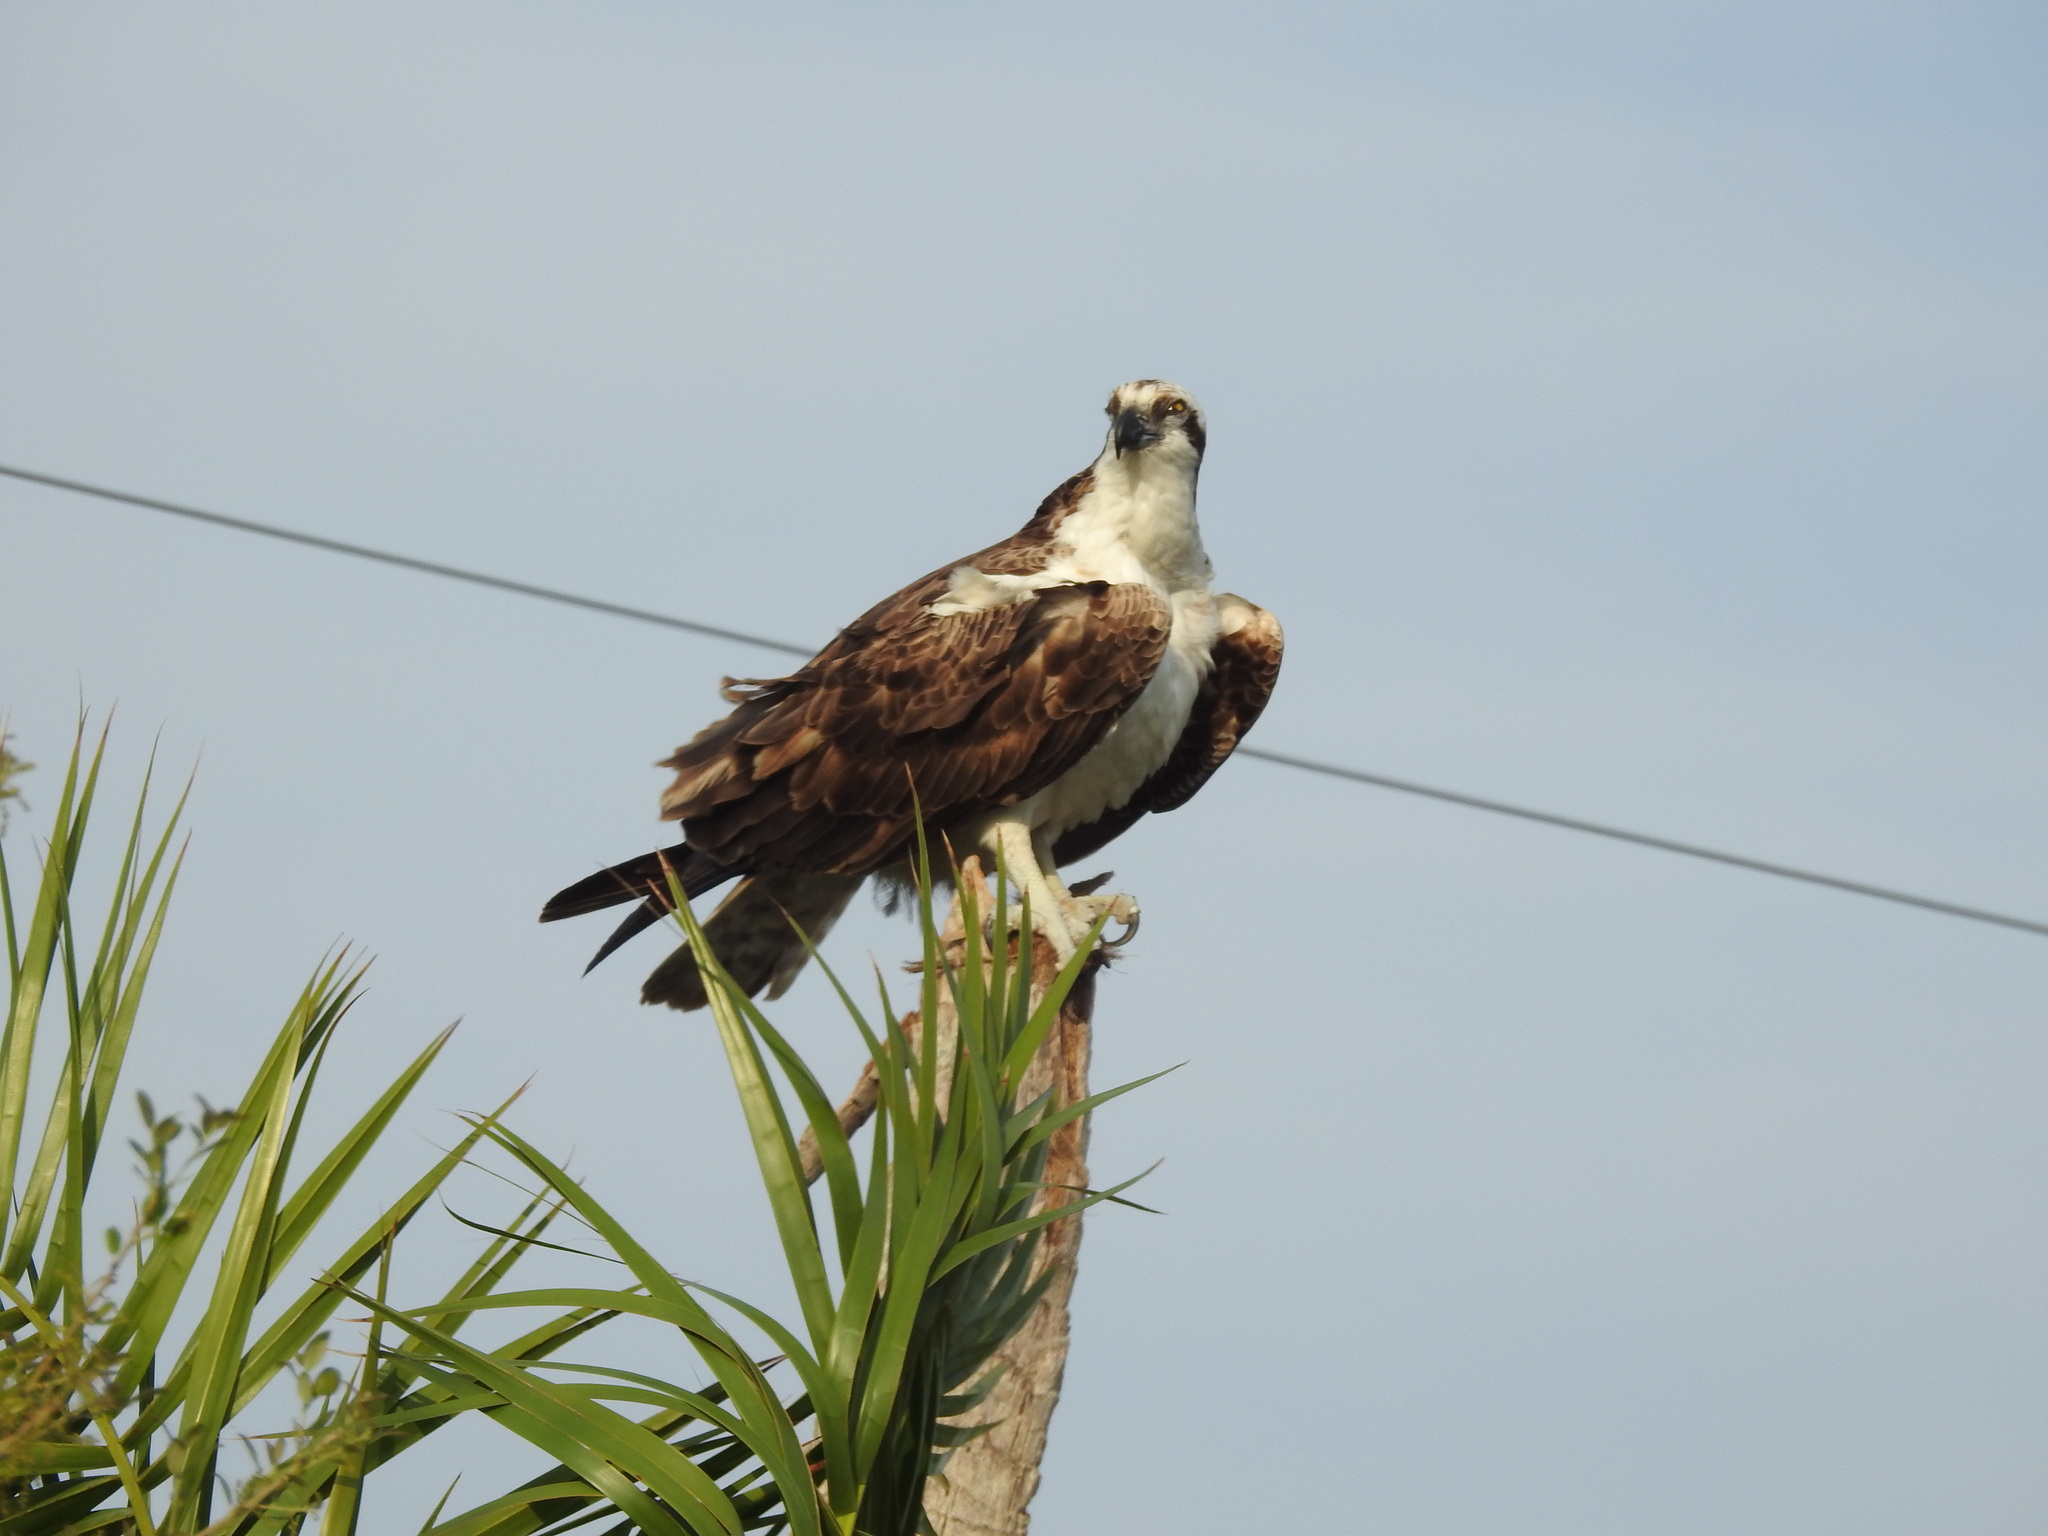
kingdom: Animalia
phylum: Chordata
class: Aves
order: Accipitriformes
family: Pandionidae
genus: Pandion
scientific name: Pandion haliaetus
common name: Osprey
